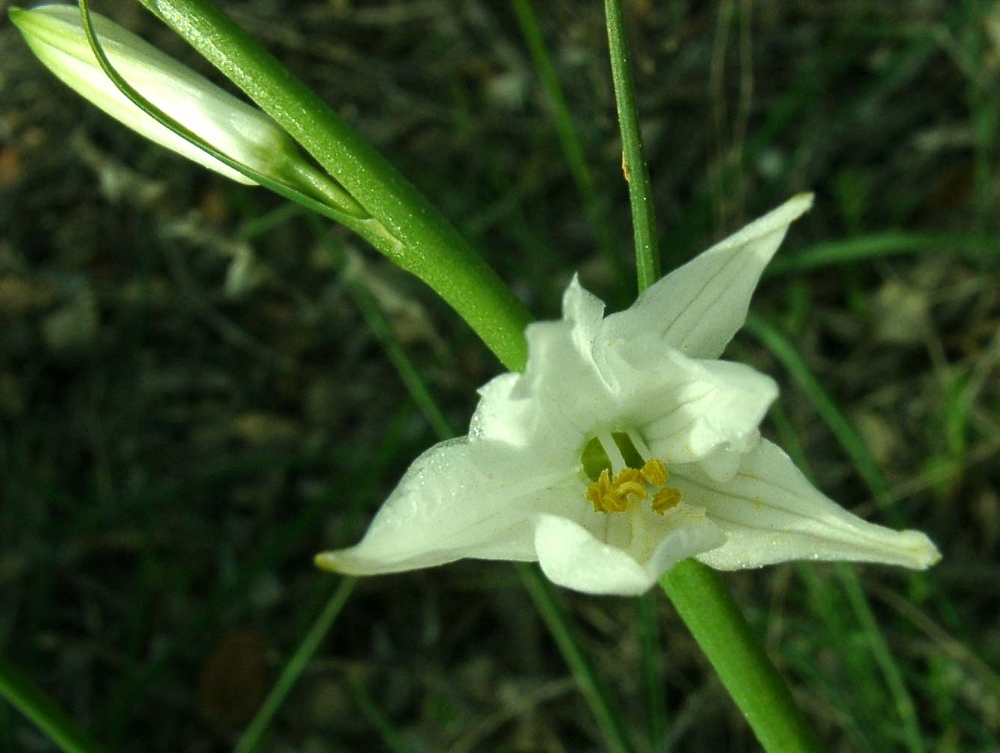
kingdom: Plantae
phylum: Tracheophyta
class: Liliopsida
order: Asparagales
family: Asparagaceae
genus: Anthericum
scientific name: Anthericum liliago
